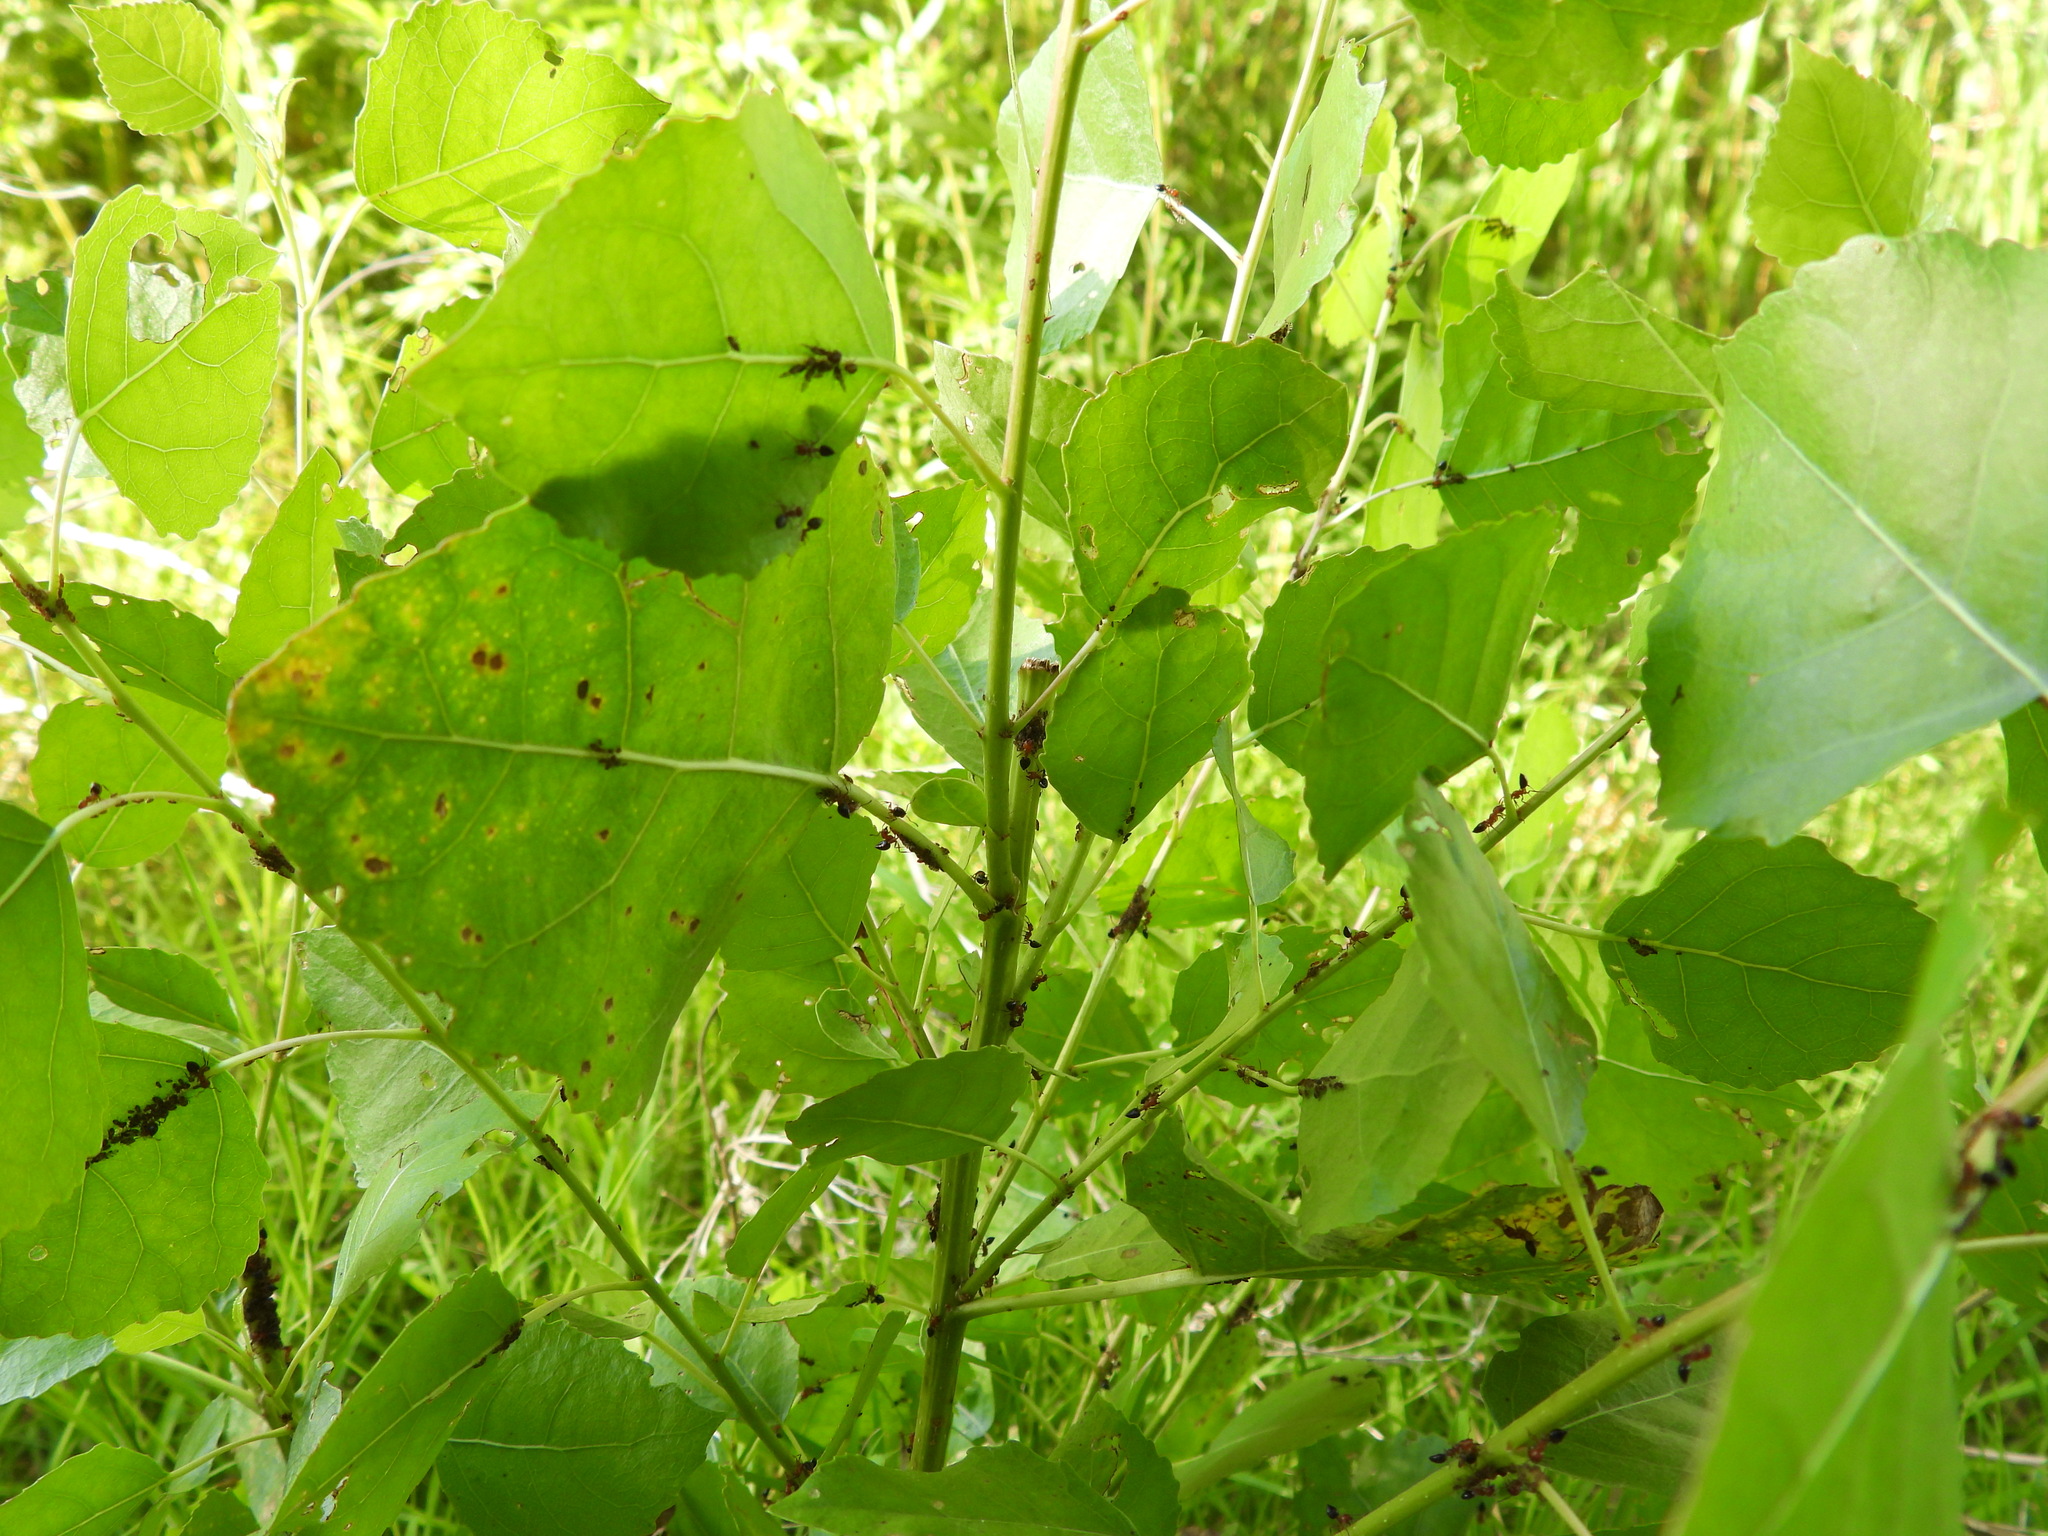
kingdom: Animalia
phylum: Arthropoda
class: Insecta
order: Hemiptera
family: Aphididae
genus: Chaitophorus
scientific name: Chaitophorus populicola
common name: Smokywinged poplar aphid
